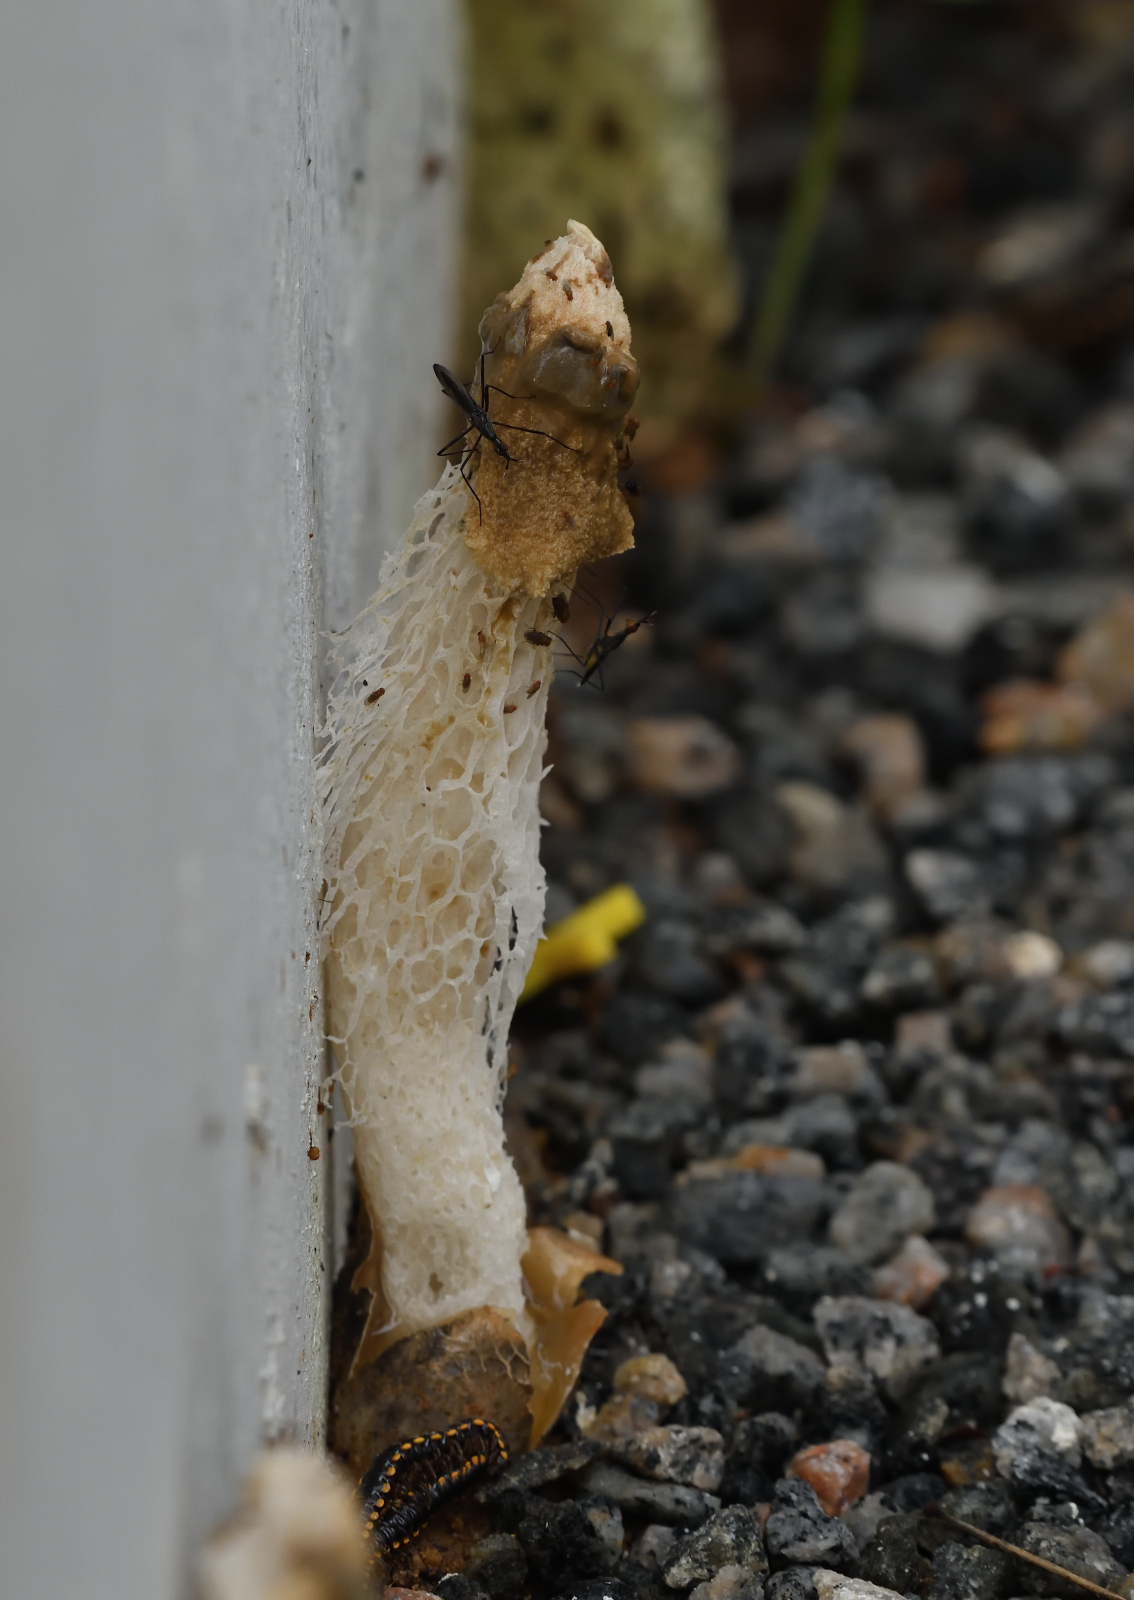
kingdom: Fungi
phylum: Basidiomycota
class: Agaricomycetes
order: Phallales
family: Phallaceae
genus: Phallus
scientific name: Phallus merulinus
